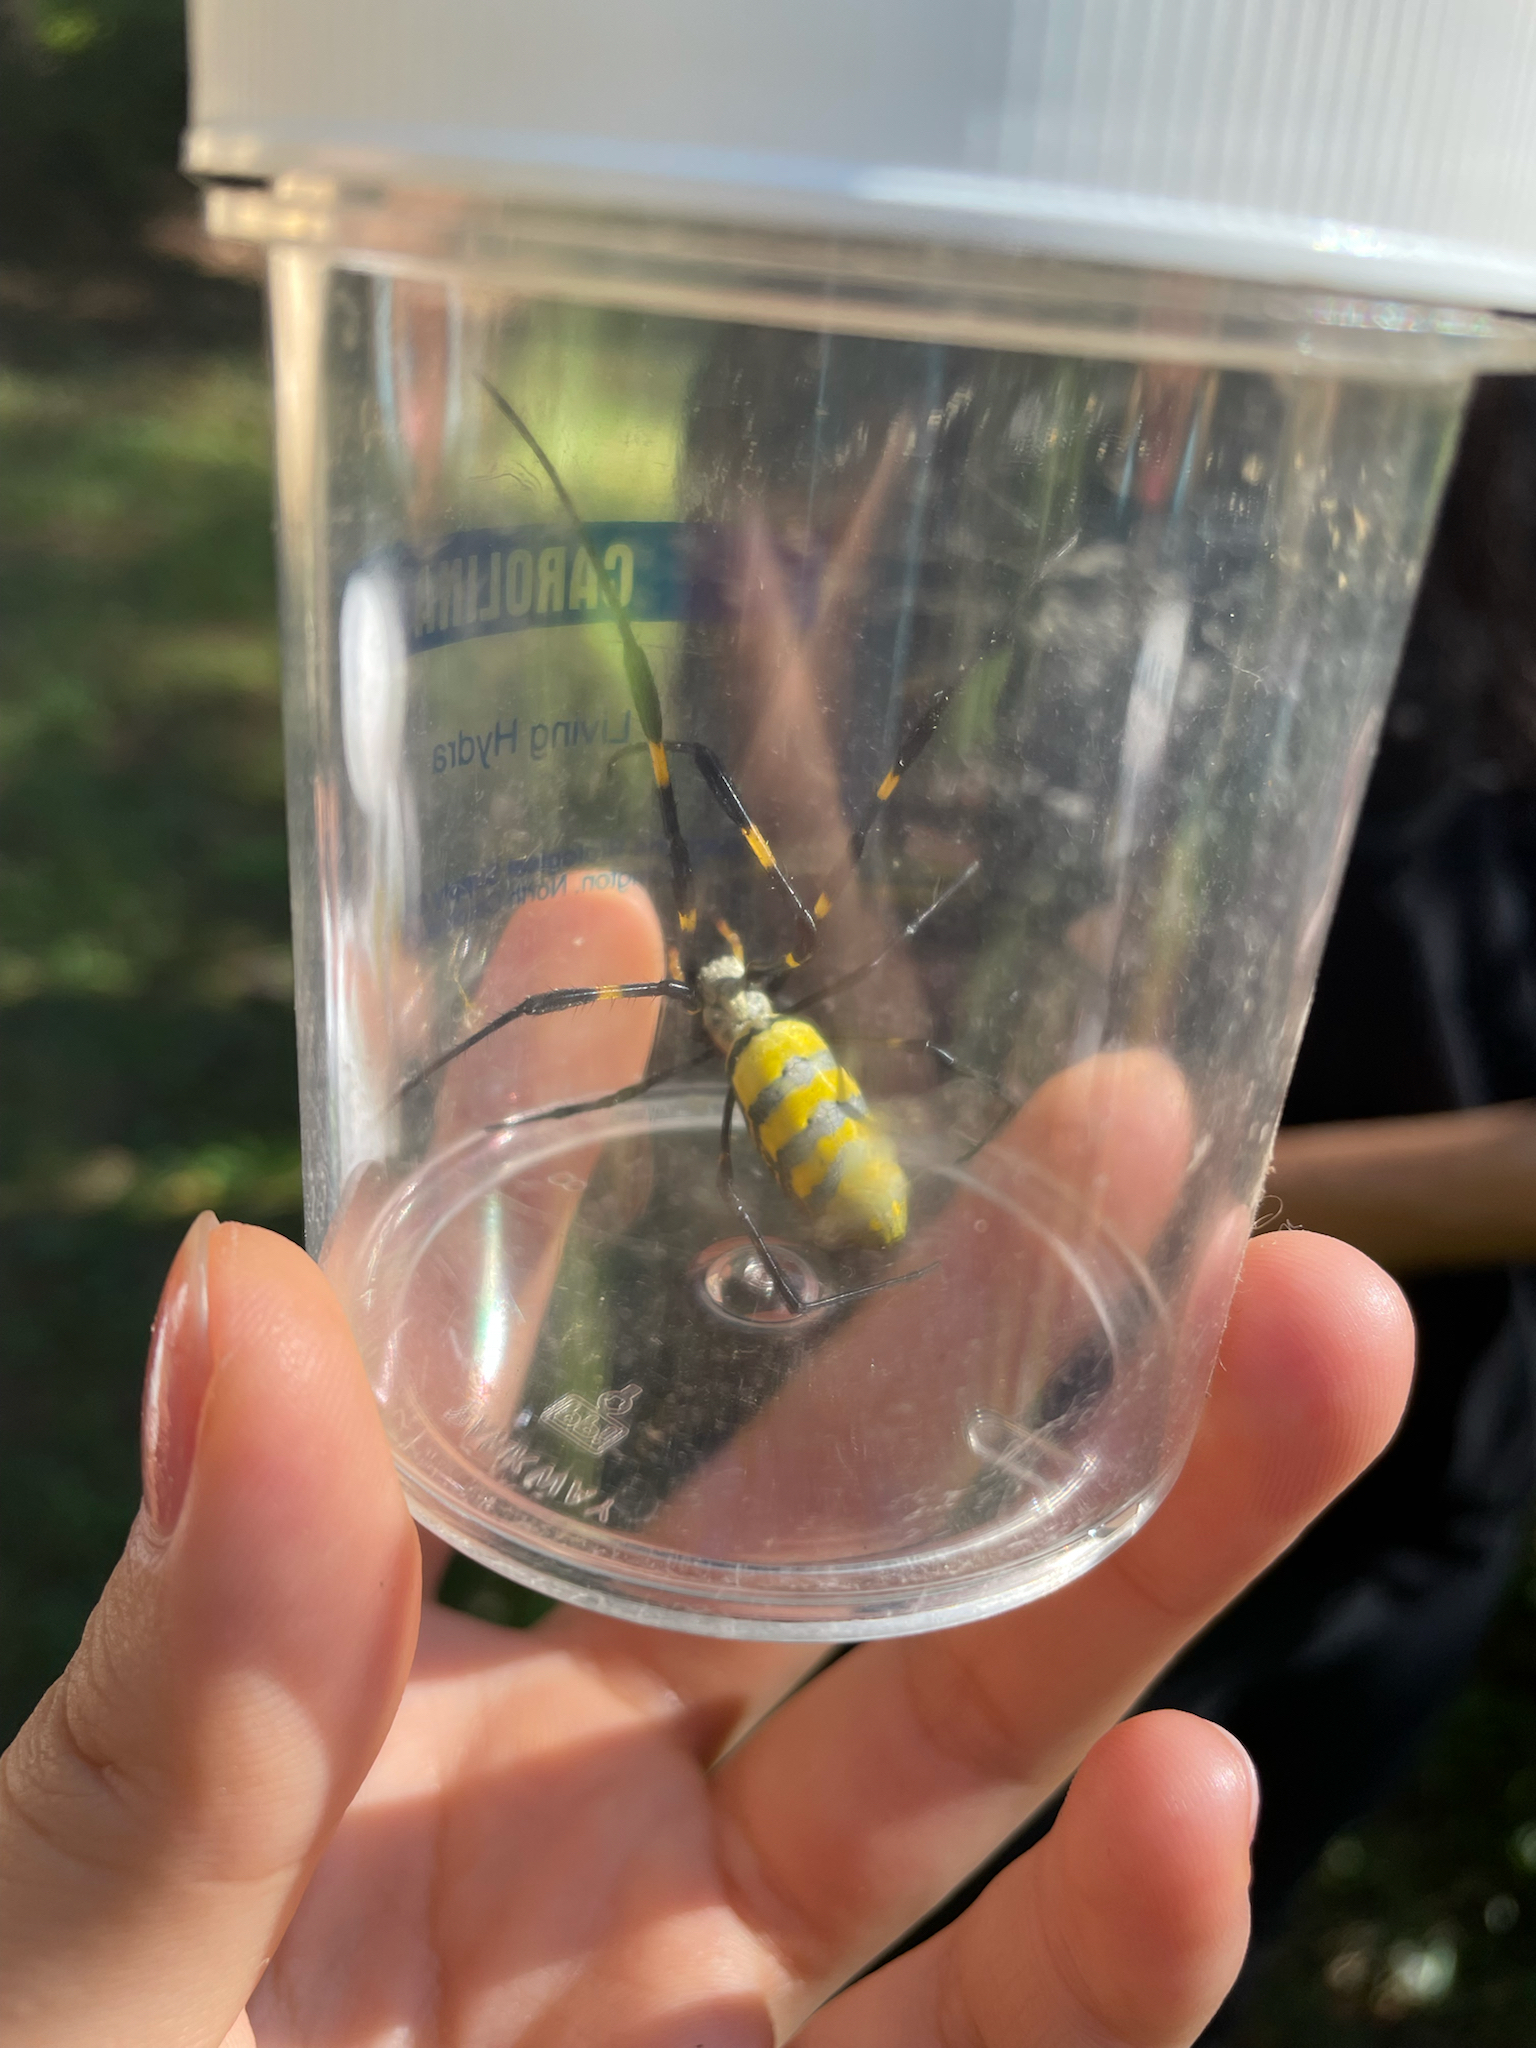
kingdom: Animalia
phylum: Arthropoda
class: Arachnida
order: Araneae
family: Araneidae
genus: Trichonephila
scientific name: Trichonephila clavata
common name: Jorō spider
